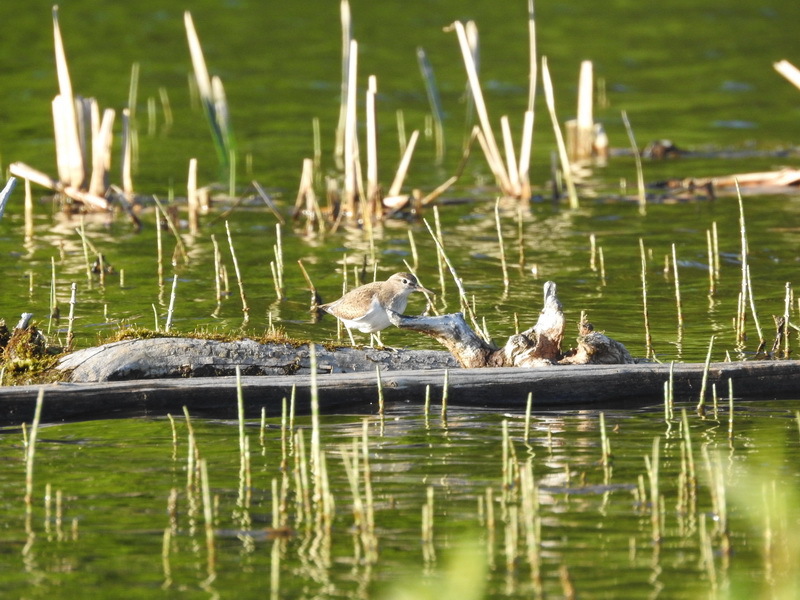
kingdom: Animalia
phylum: Chordata
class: Aves
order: Charadriiformes
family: Scolopacidae
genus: Actitis
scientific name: Actitis hypoleucos
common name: Common sandpiper
